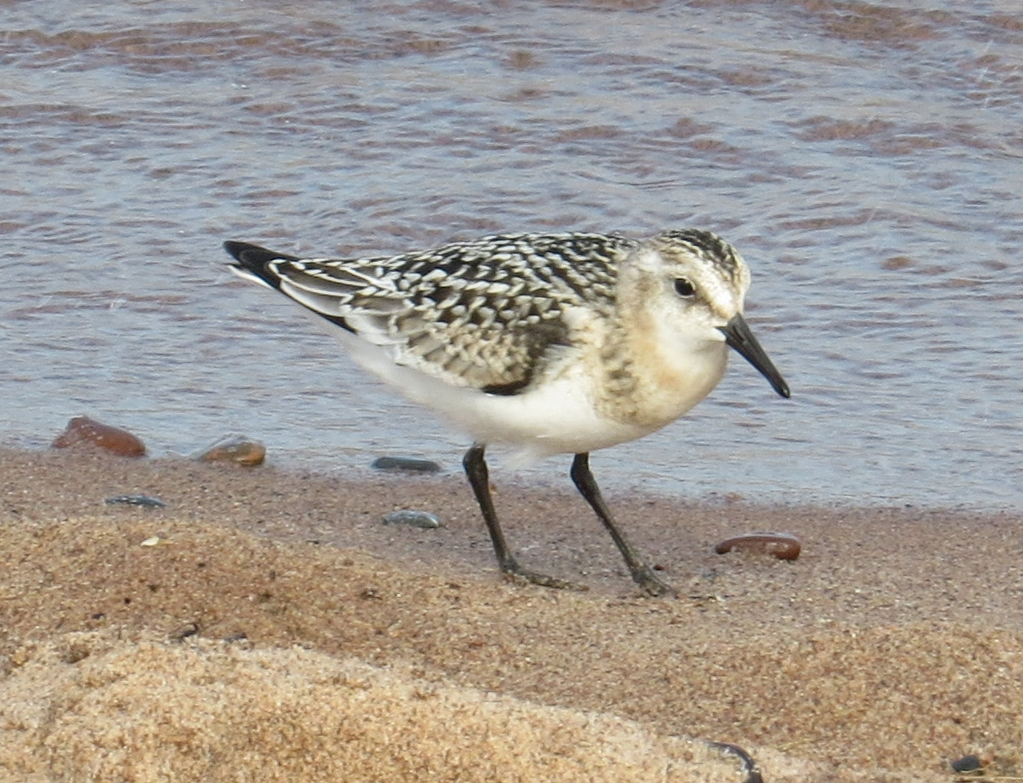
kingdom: Animalia
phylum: Chordata
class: Aves
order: Charadriiformes
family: Scolopacidae
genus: Calidris
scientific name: Calidris alba
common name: Sanderling
